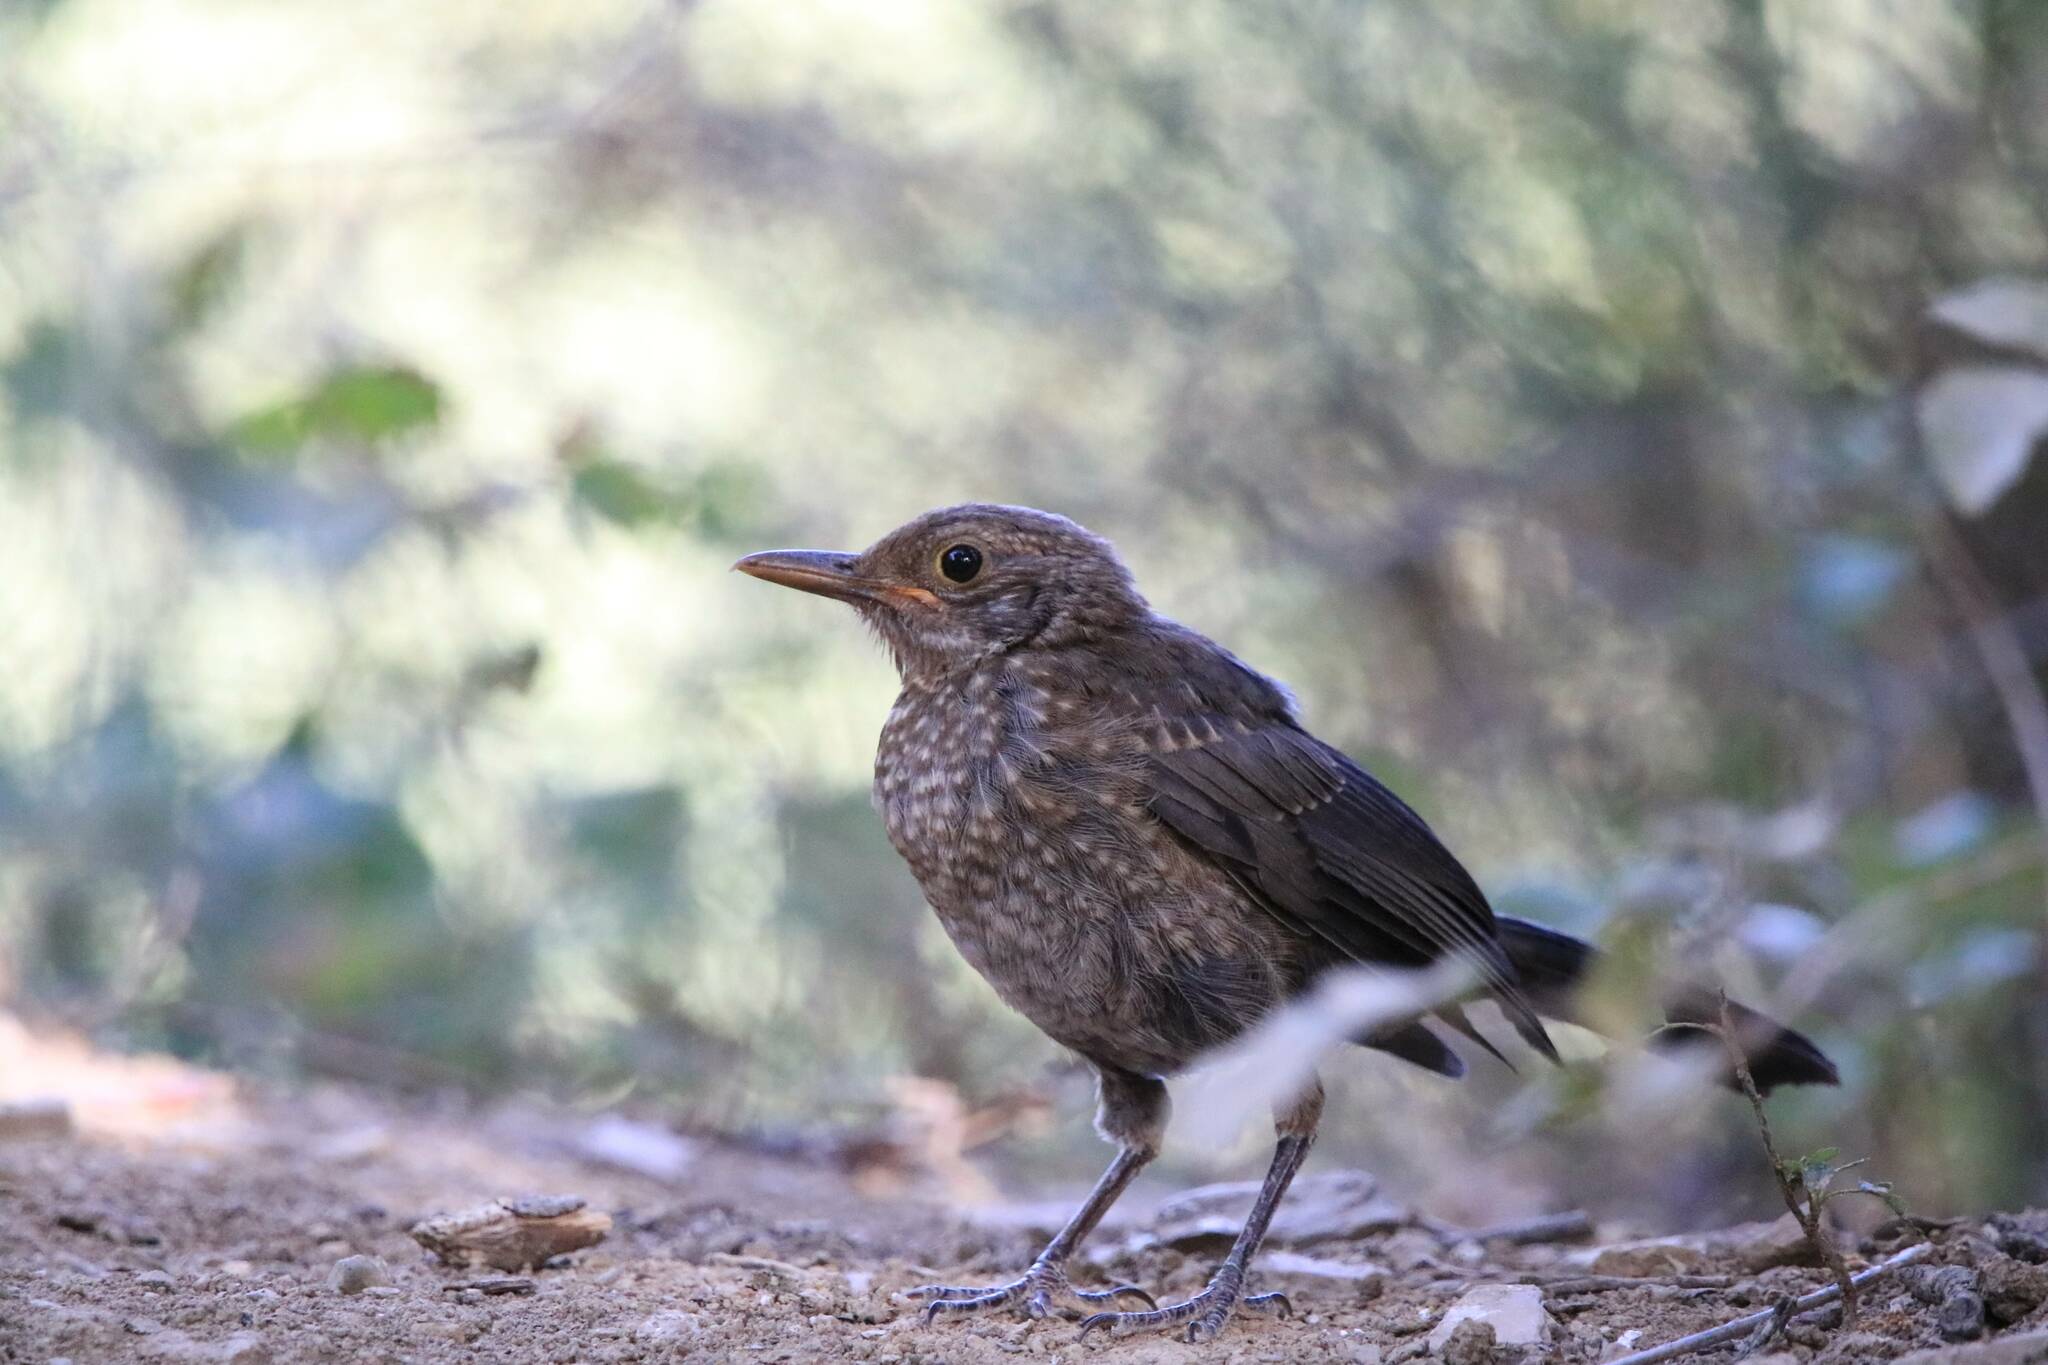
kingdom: Animalia
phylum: Chordata
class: Aves
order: Passeriformes
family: Turdidae
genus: Turdus
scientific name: Turdus merula
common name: Common blackbird
